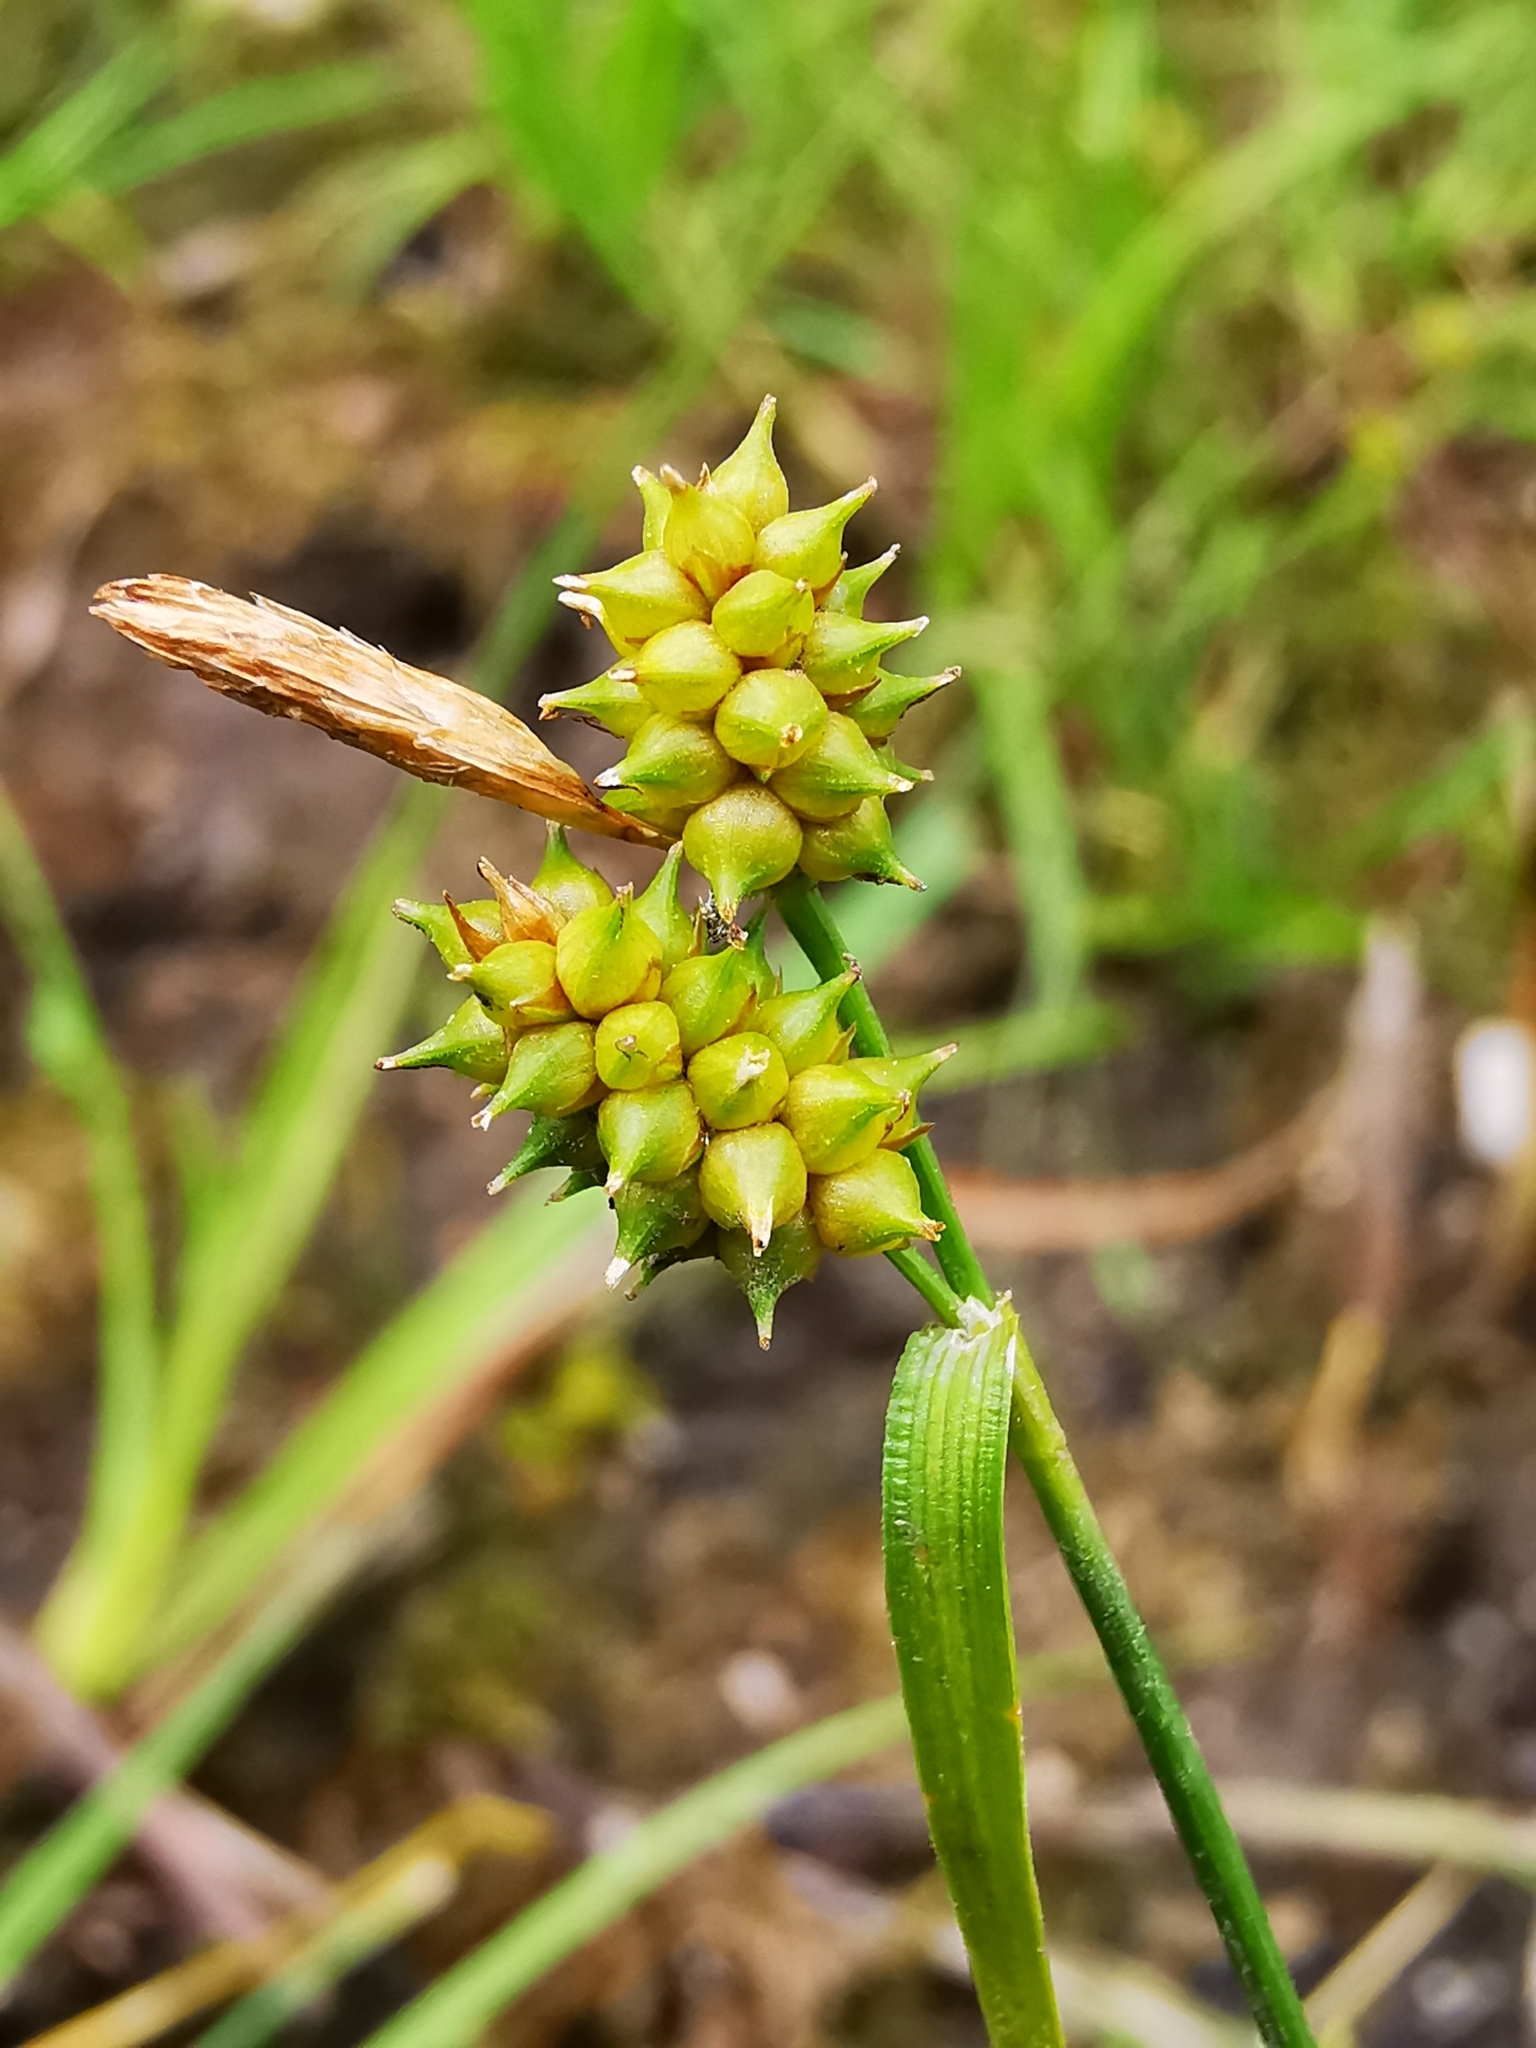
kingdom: Plantae
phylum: Tracheophyta
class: Liliopsida
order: Poales
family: Cyperaceae
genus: Carex
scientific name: Carex
